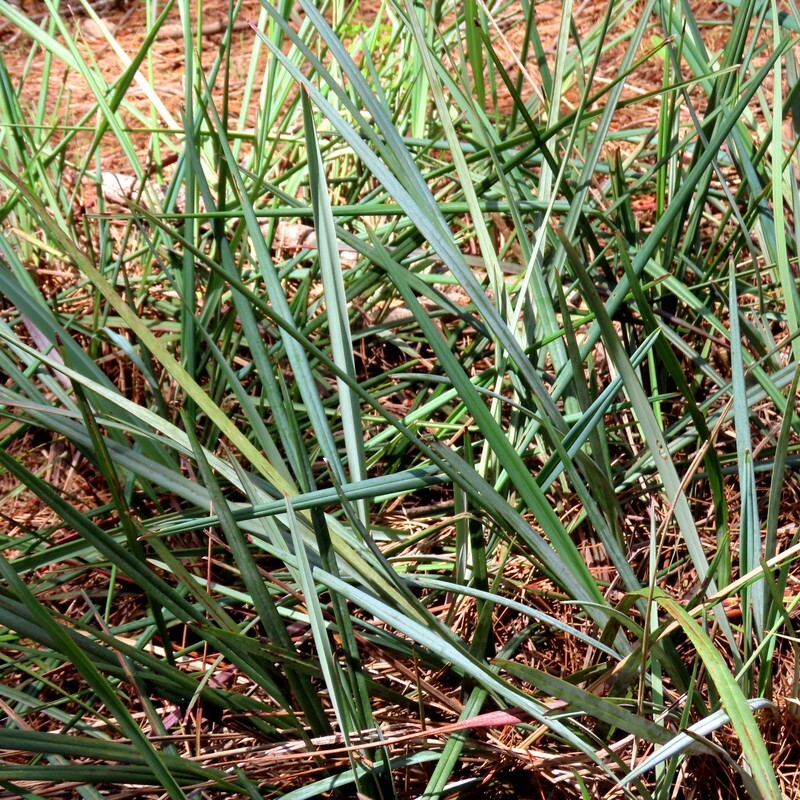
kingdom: Plantae
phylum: Tracheophyta
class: Liliopsida
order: Asparagales
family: Asphodelaceae
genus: Dianella
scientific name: Dianella revoluta
